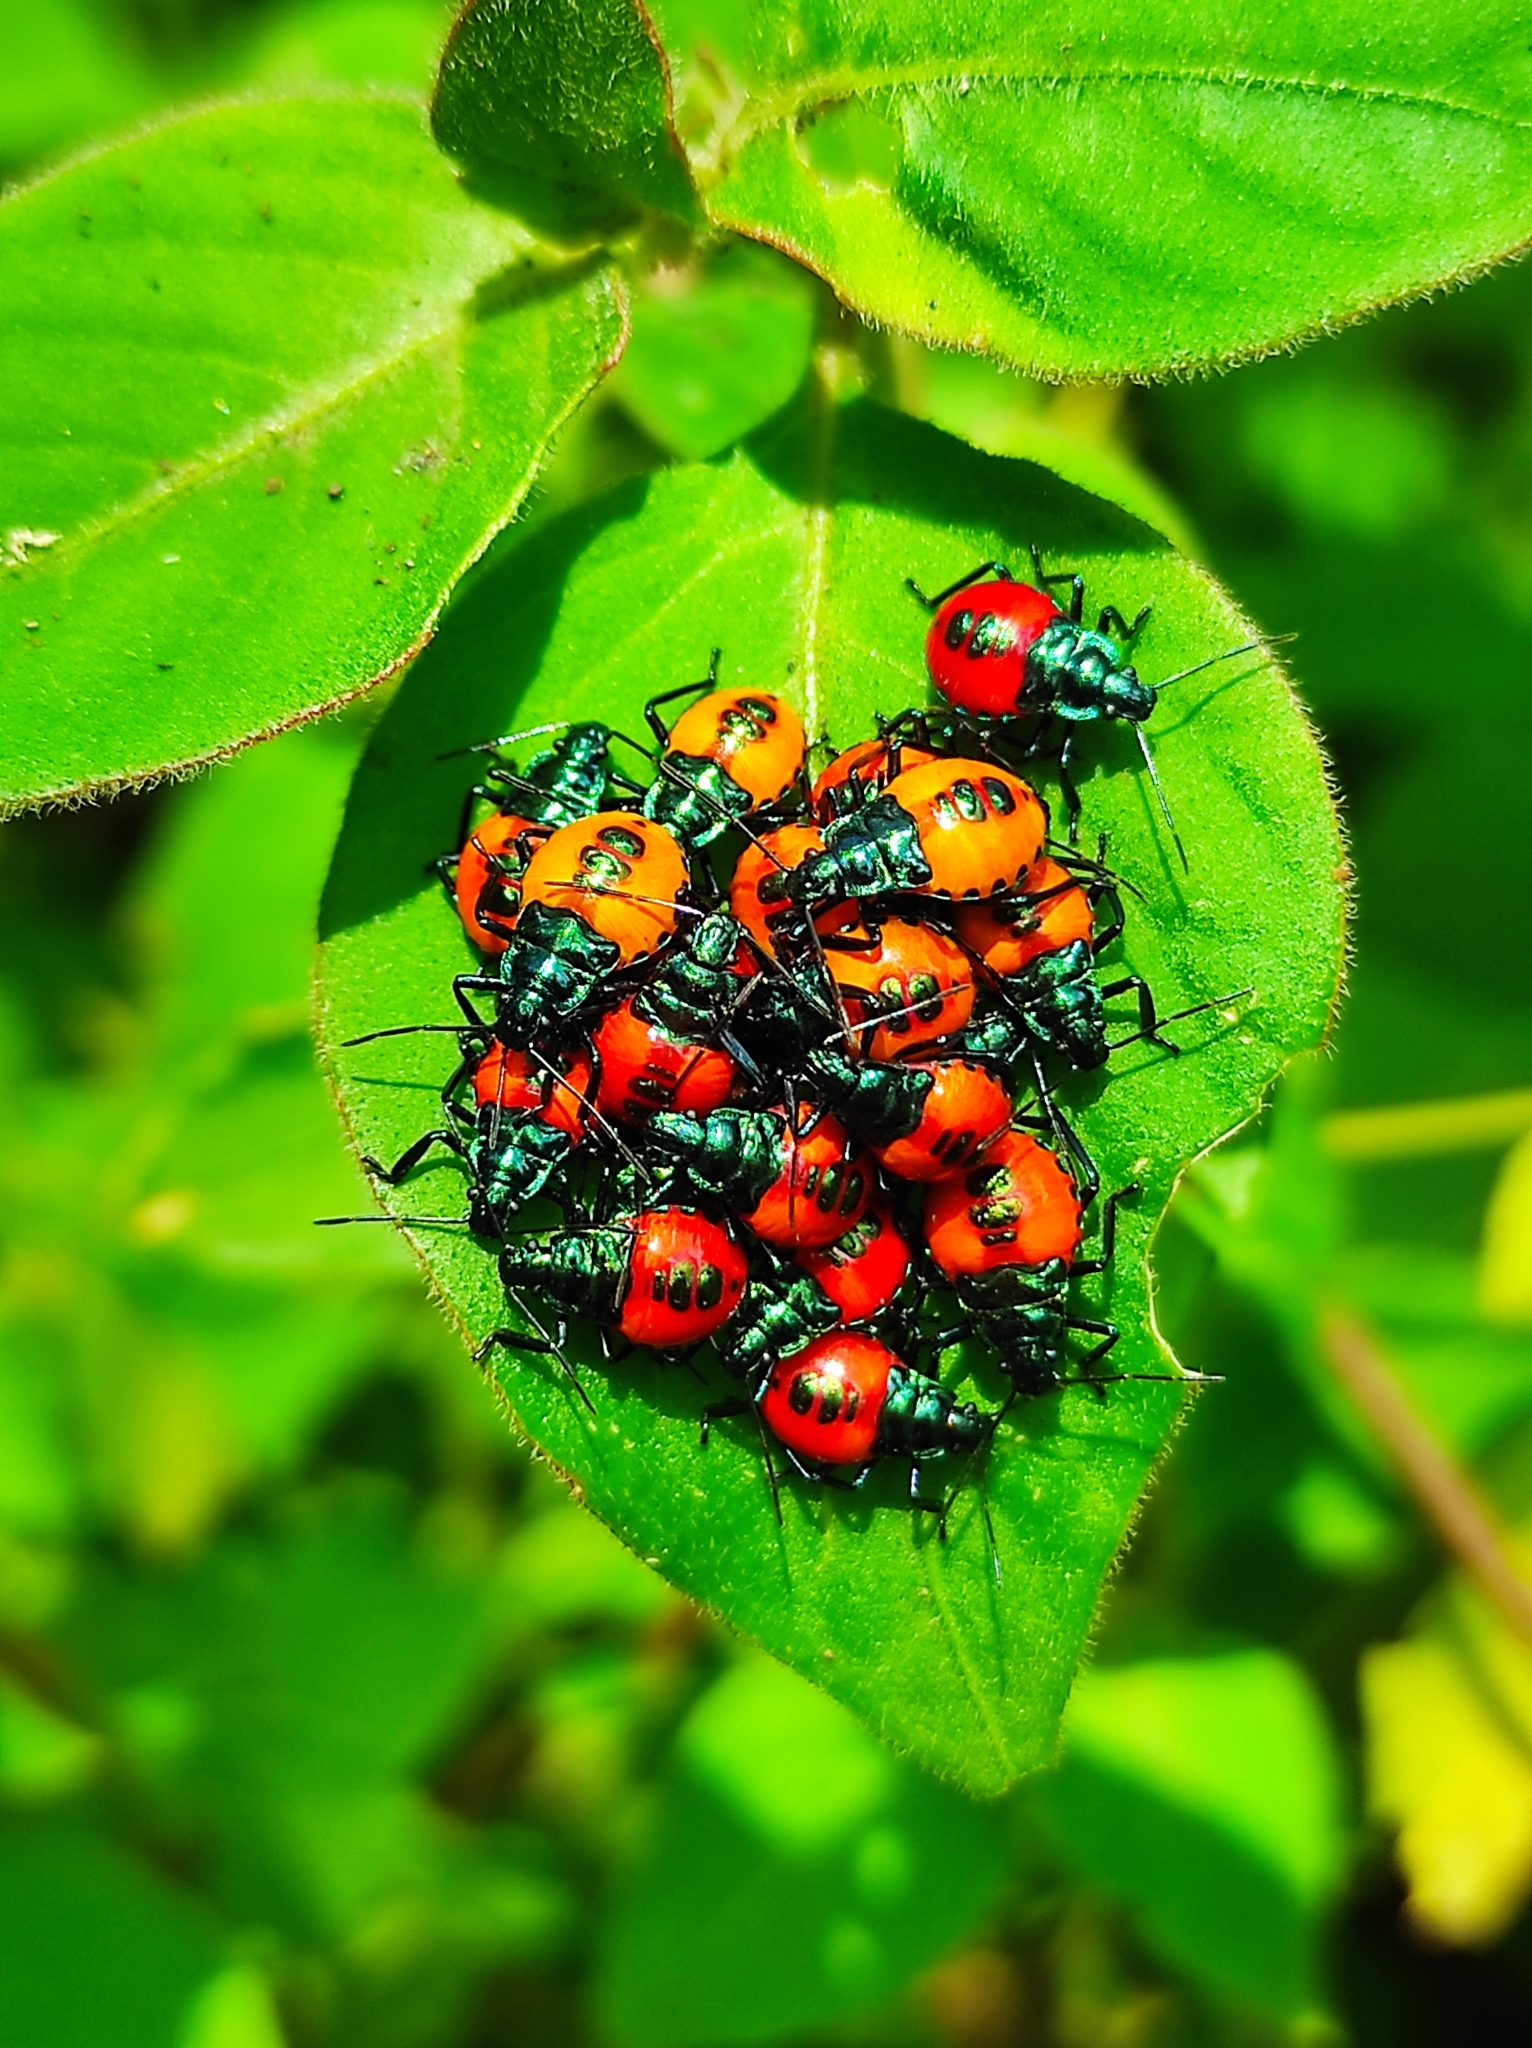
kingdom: Animalia
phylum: Arthropoda
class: Insecta
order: Hemiptera
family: Pentatomidae
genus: Euthyrhynchus
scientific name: Euthyrhynchus floridanus
